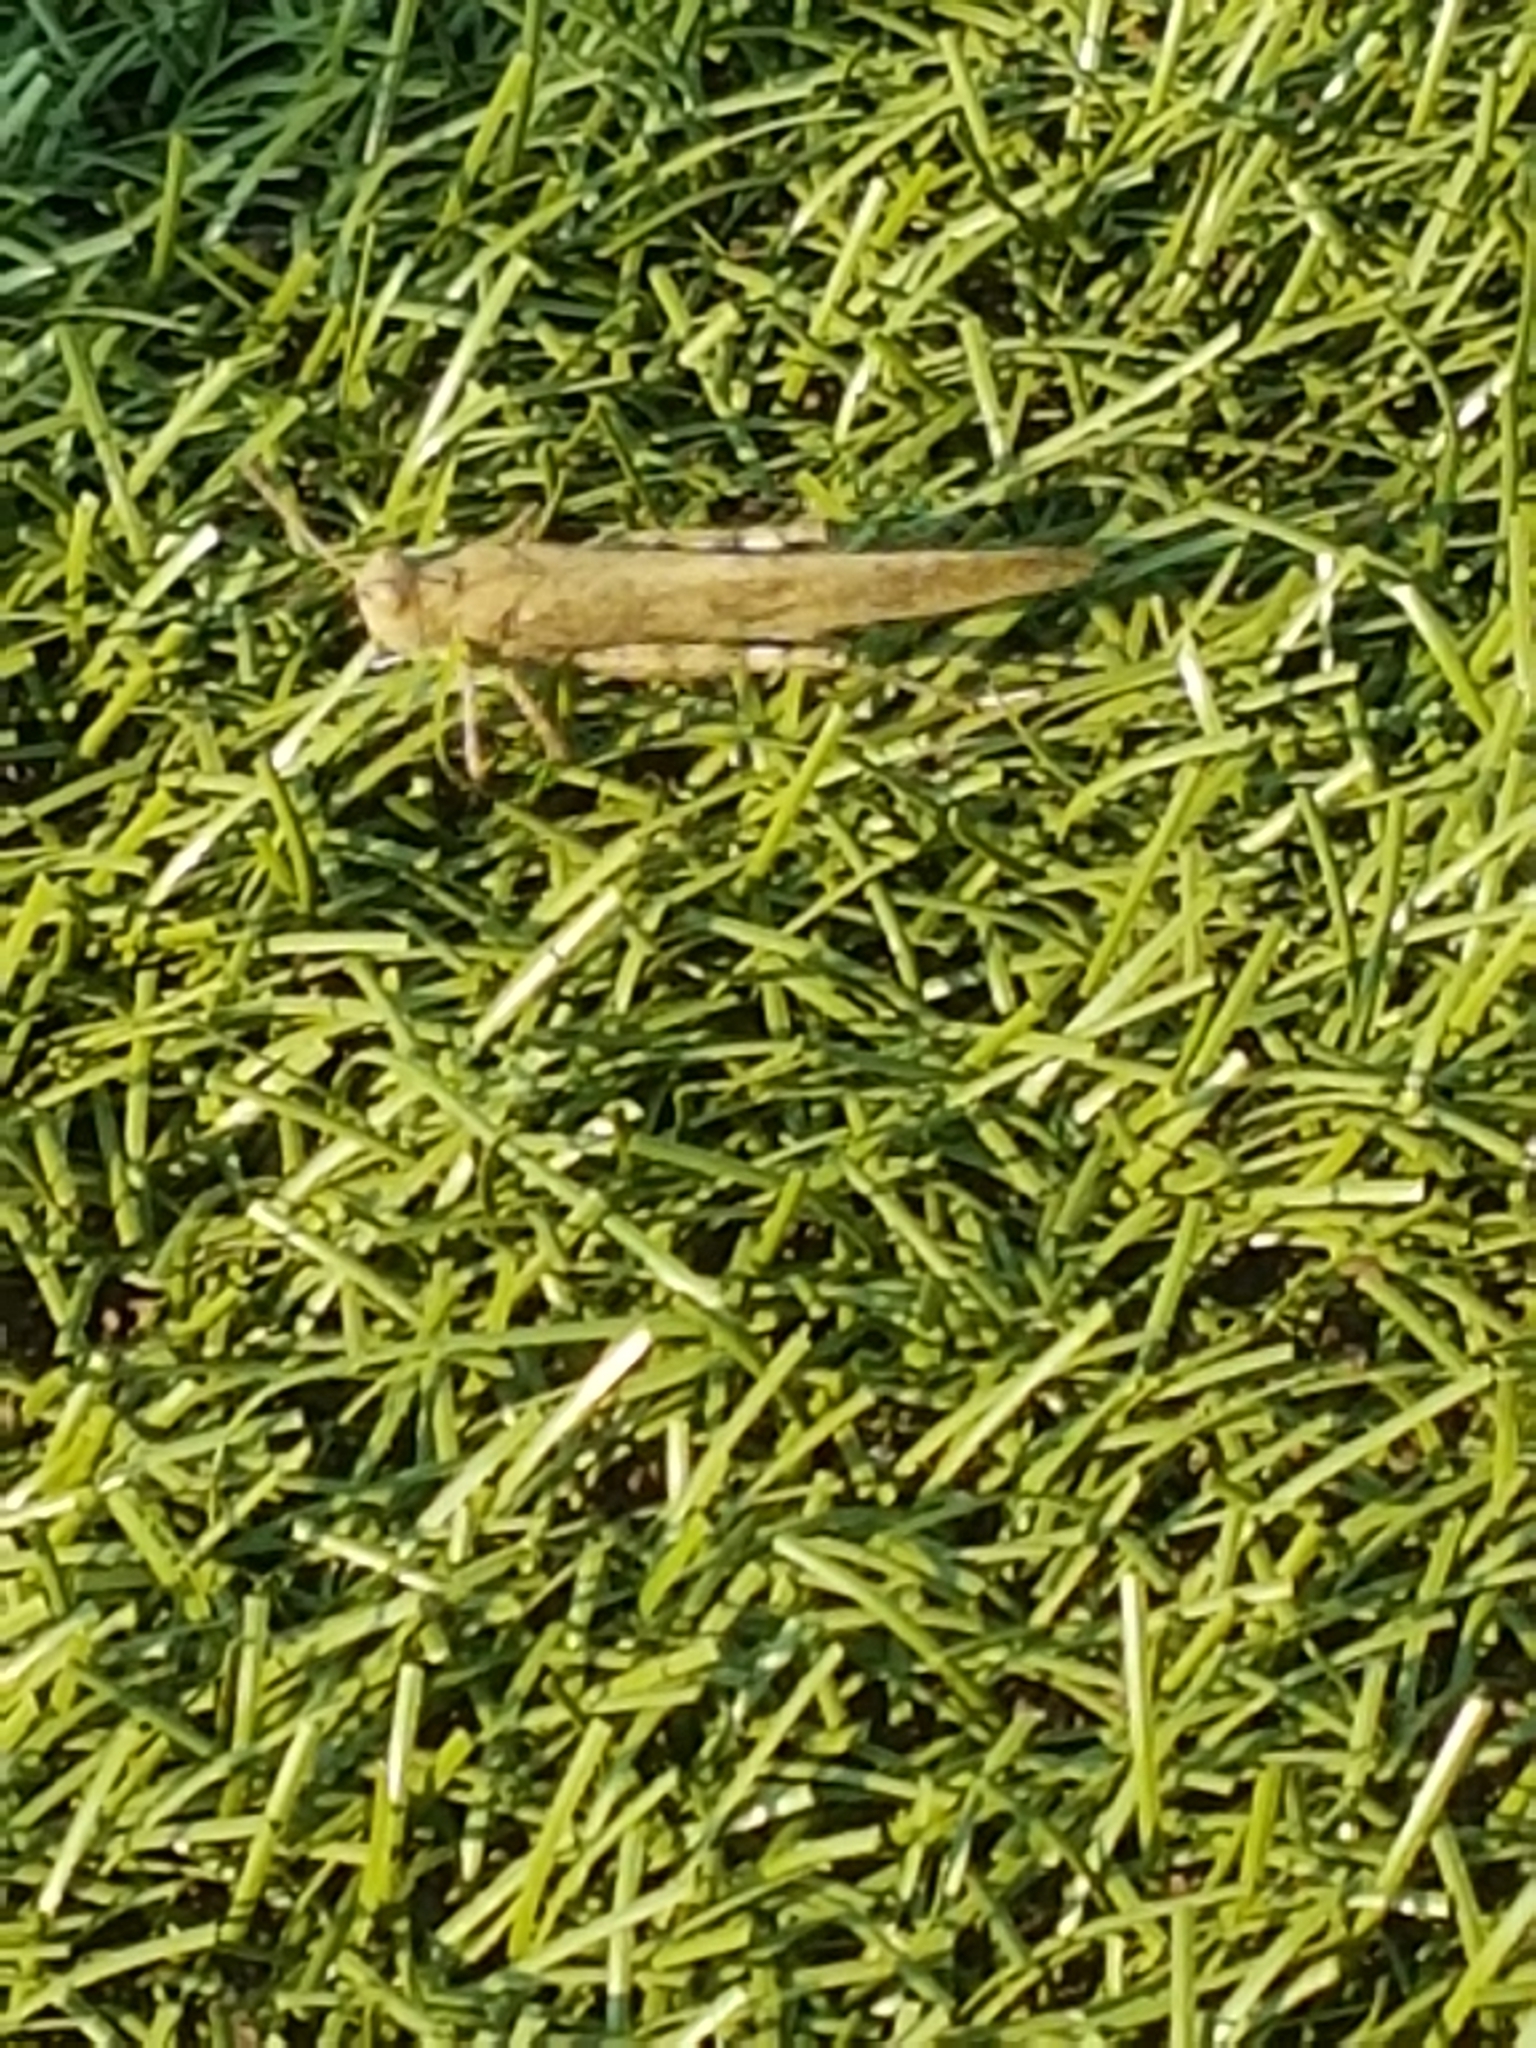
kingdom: Animalia
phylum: Arthropoda
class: Insecta
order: Orthoptera
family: Acrididae
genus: Dissosteira
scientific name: Dissosteira carolina
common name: Carolina grasshopper
